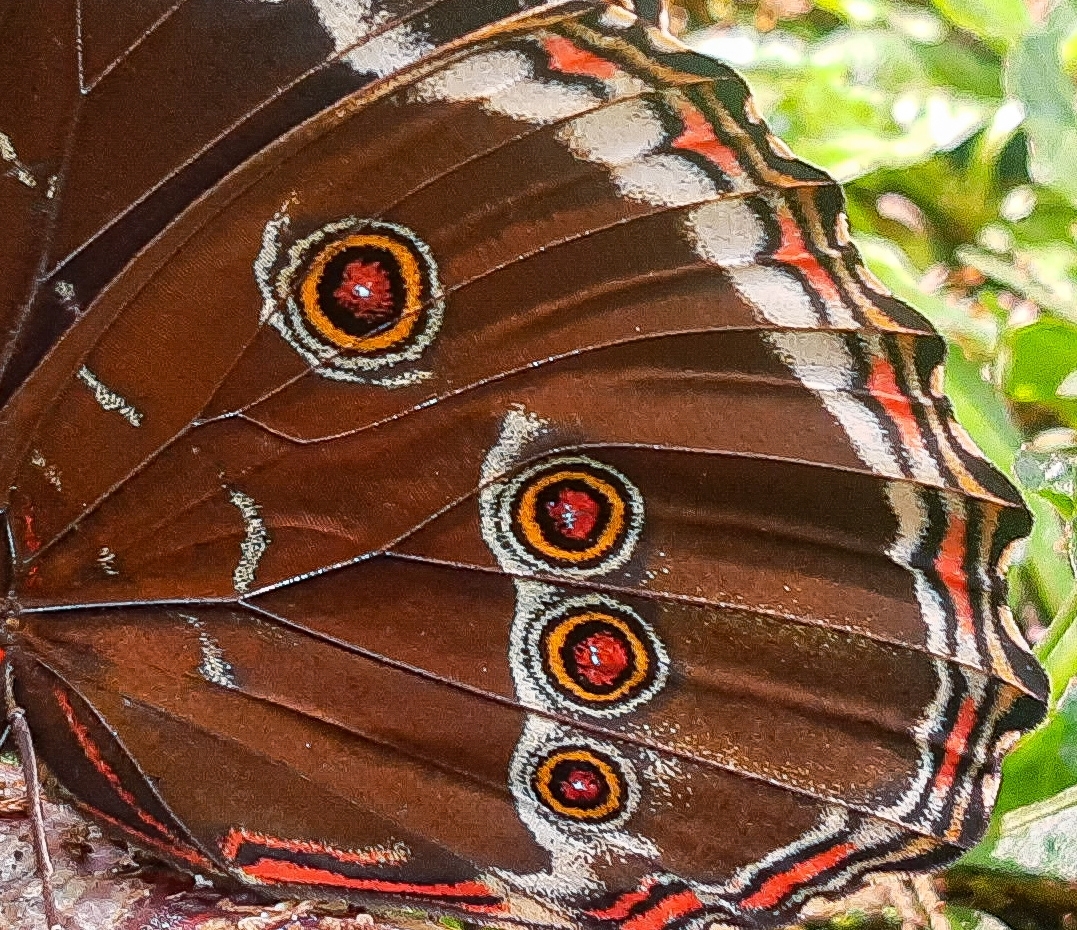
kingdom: Animalia
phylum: Arthropoda
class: Insecta
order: Lepidoptera
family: Nymphalidae
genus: Morpho
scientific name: Morpho helenor
